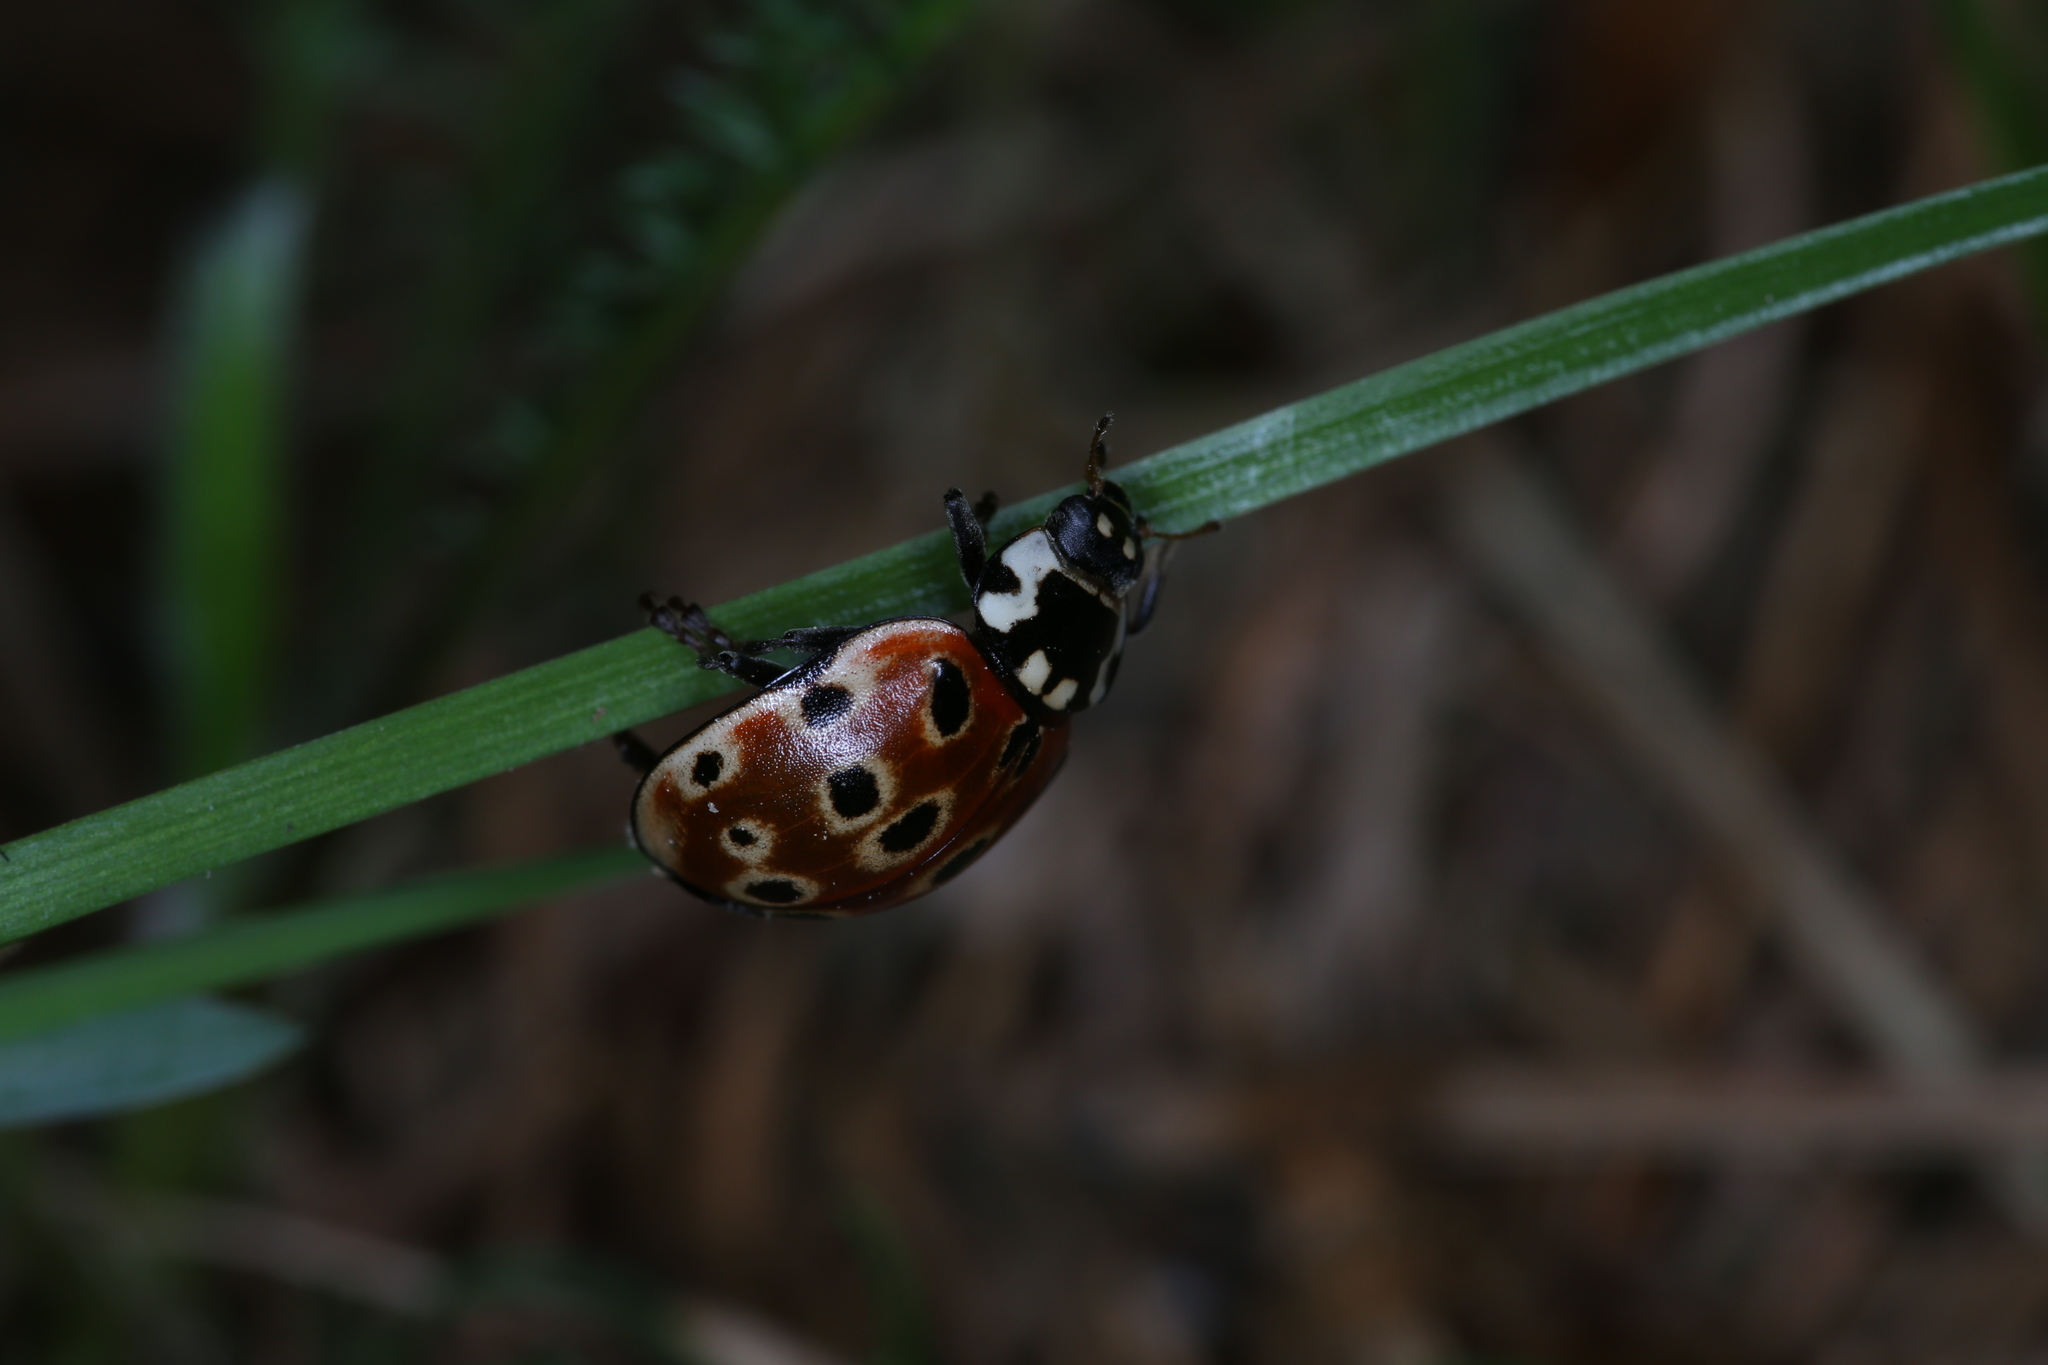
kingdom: Animalia
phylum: Arthropoda
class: Insecta
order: Coleoptera
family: Coccinellidae
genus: Anatis
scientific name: Anatis ocellata
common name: Eyed ladybird
